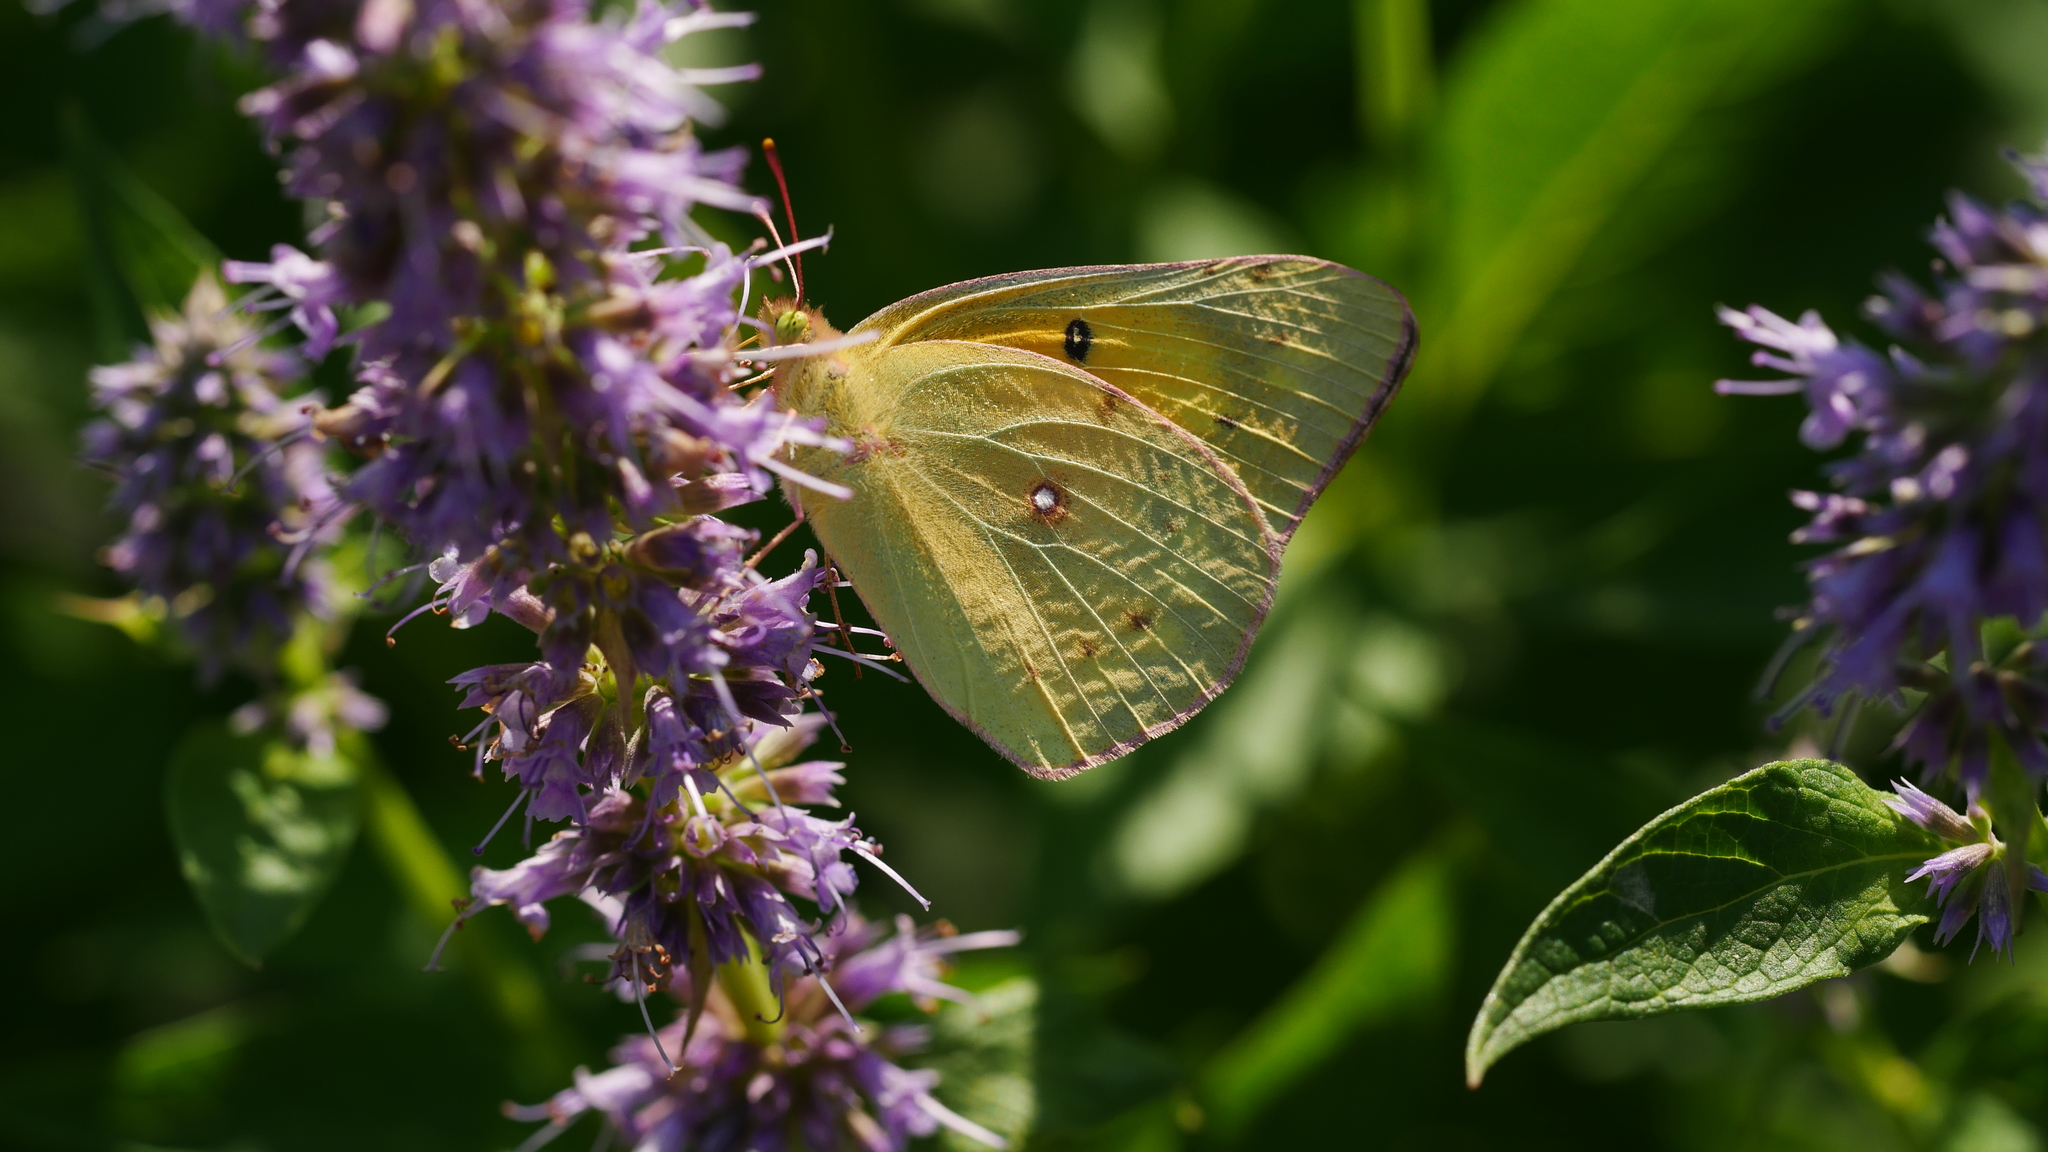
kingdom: Animalia
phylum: Arthropoda
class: Insecta
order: Lepidoptera
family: Pieridae
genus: Colias
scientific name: Colias eurytheme
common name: Alfalfa butterfly
